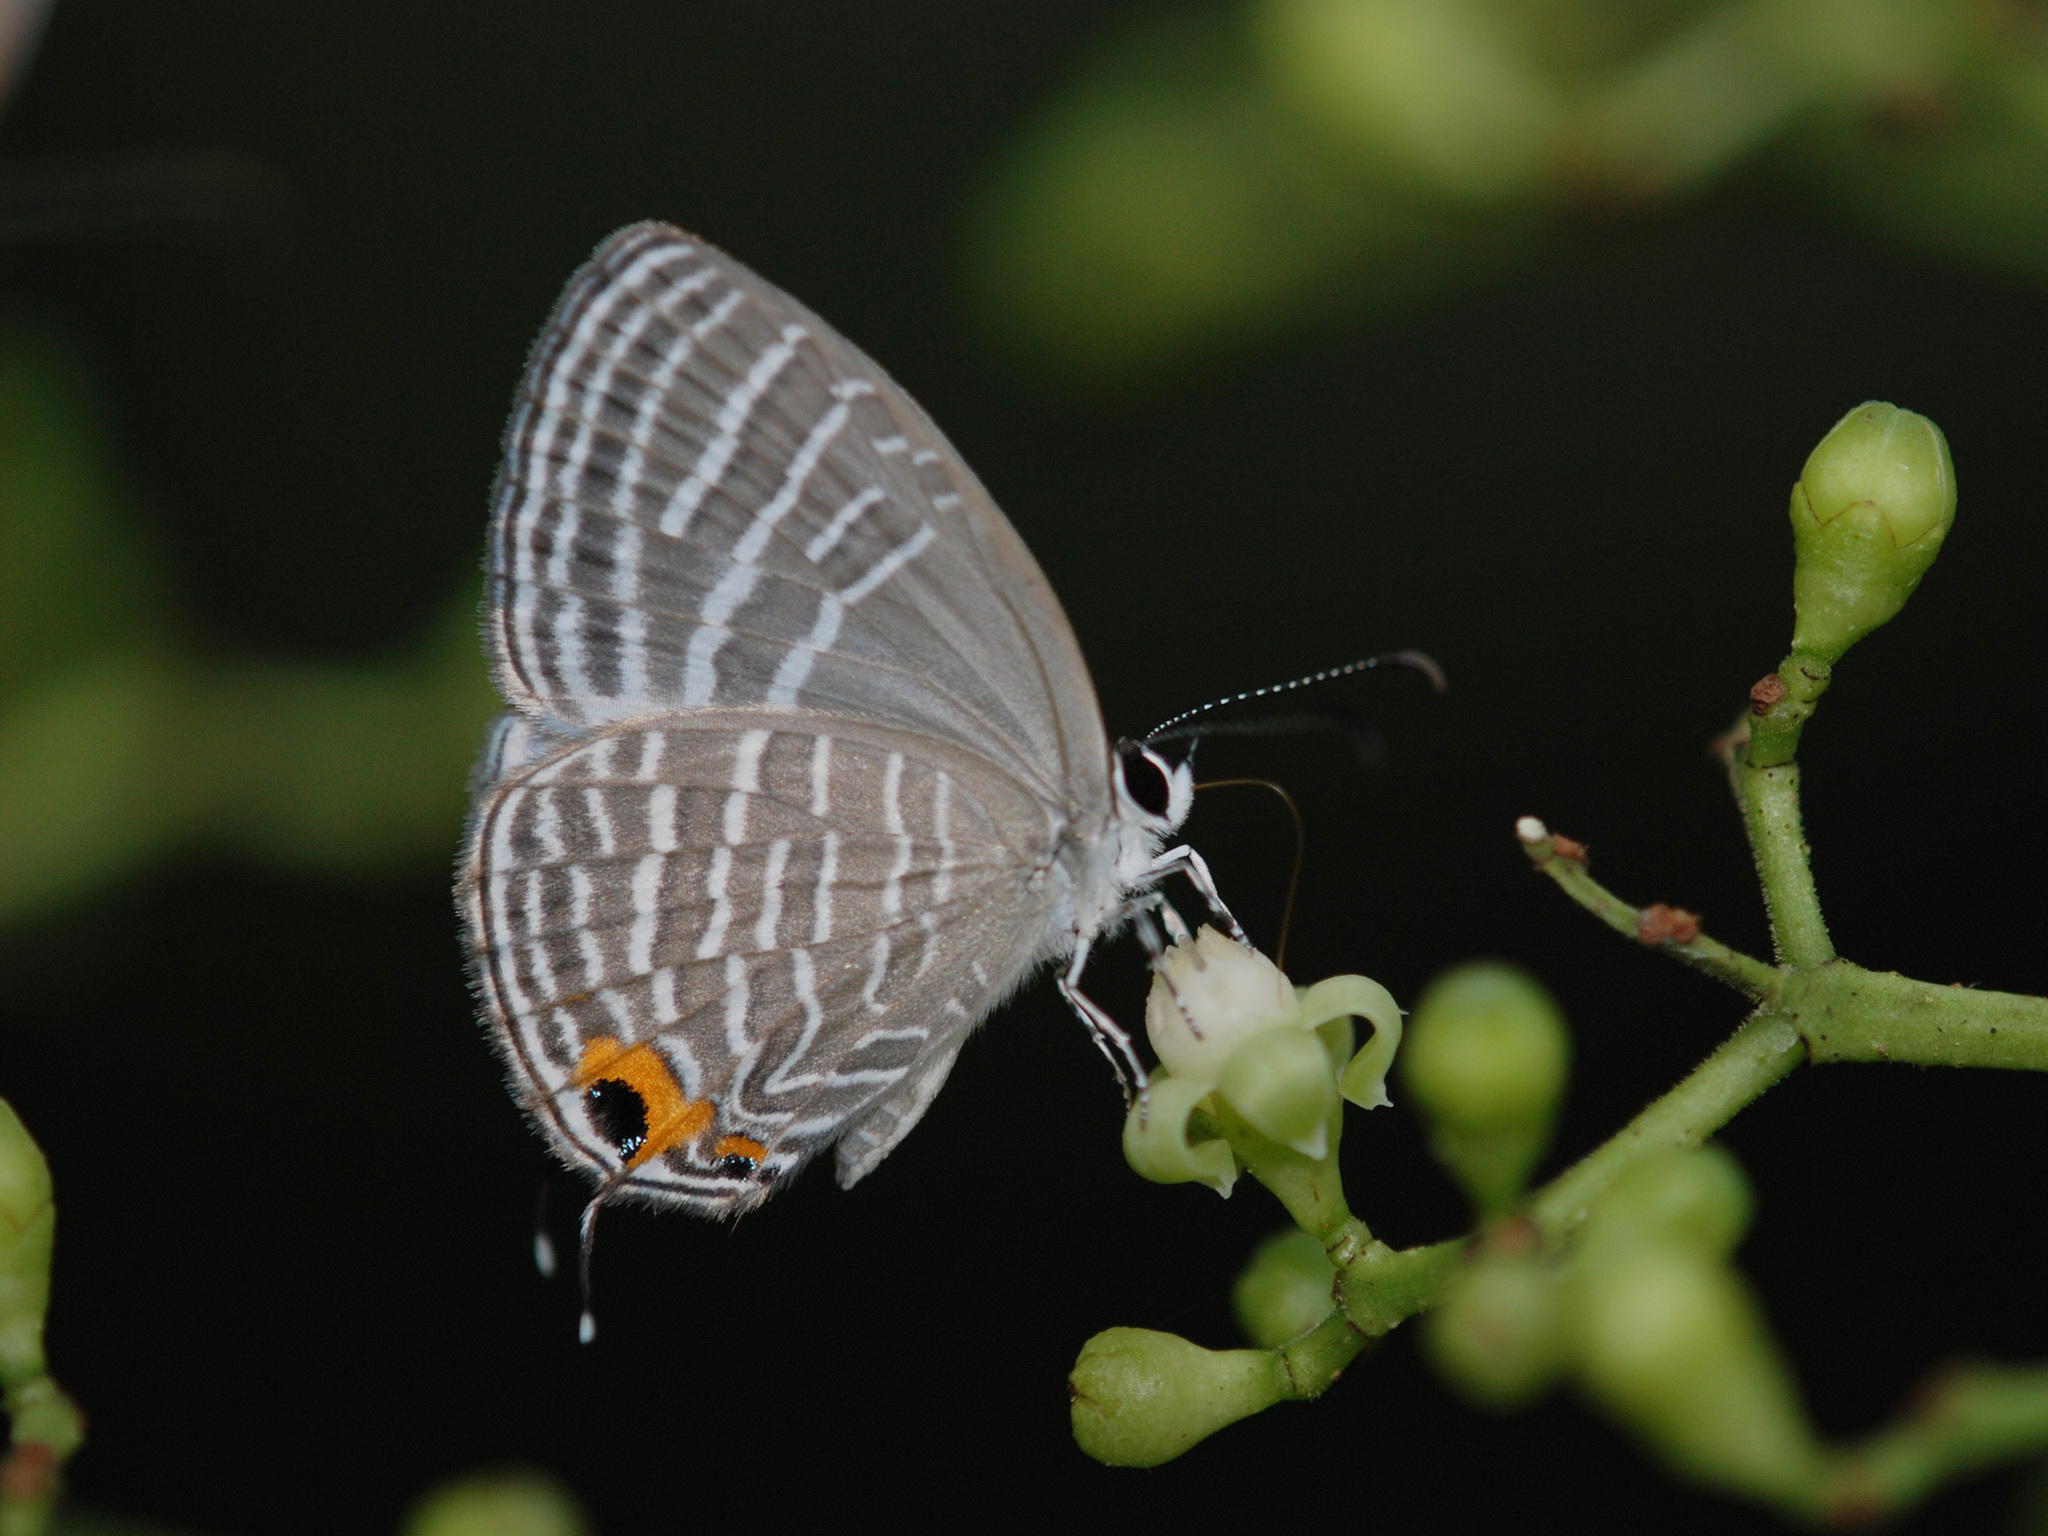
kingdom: Animalia
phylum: Arthropoda
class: Insecta
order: Lepidoptera
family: Lycaenidae
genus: Jamides
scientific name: Jamides celeno
